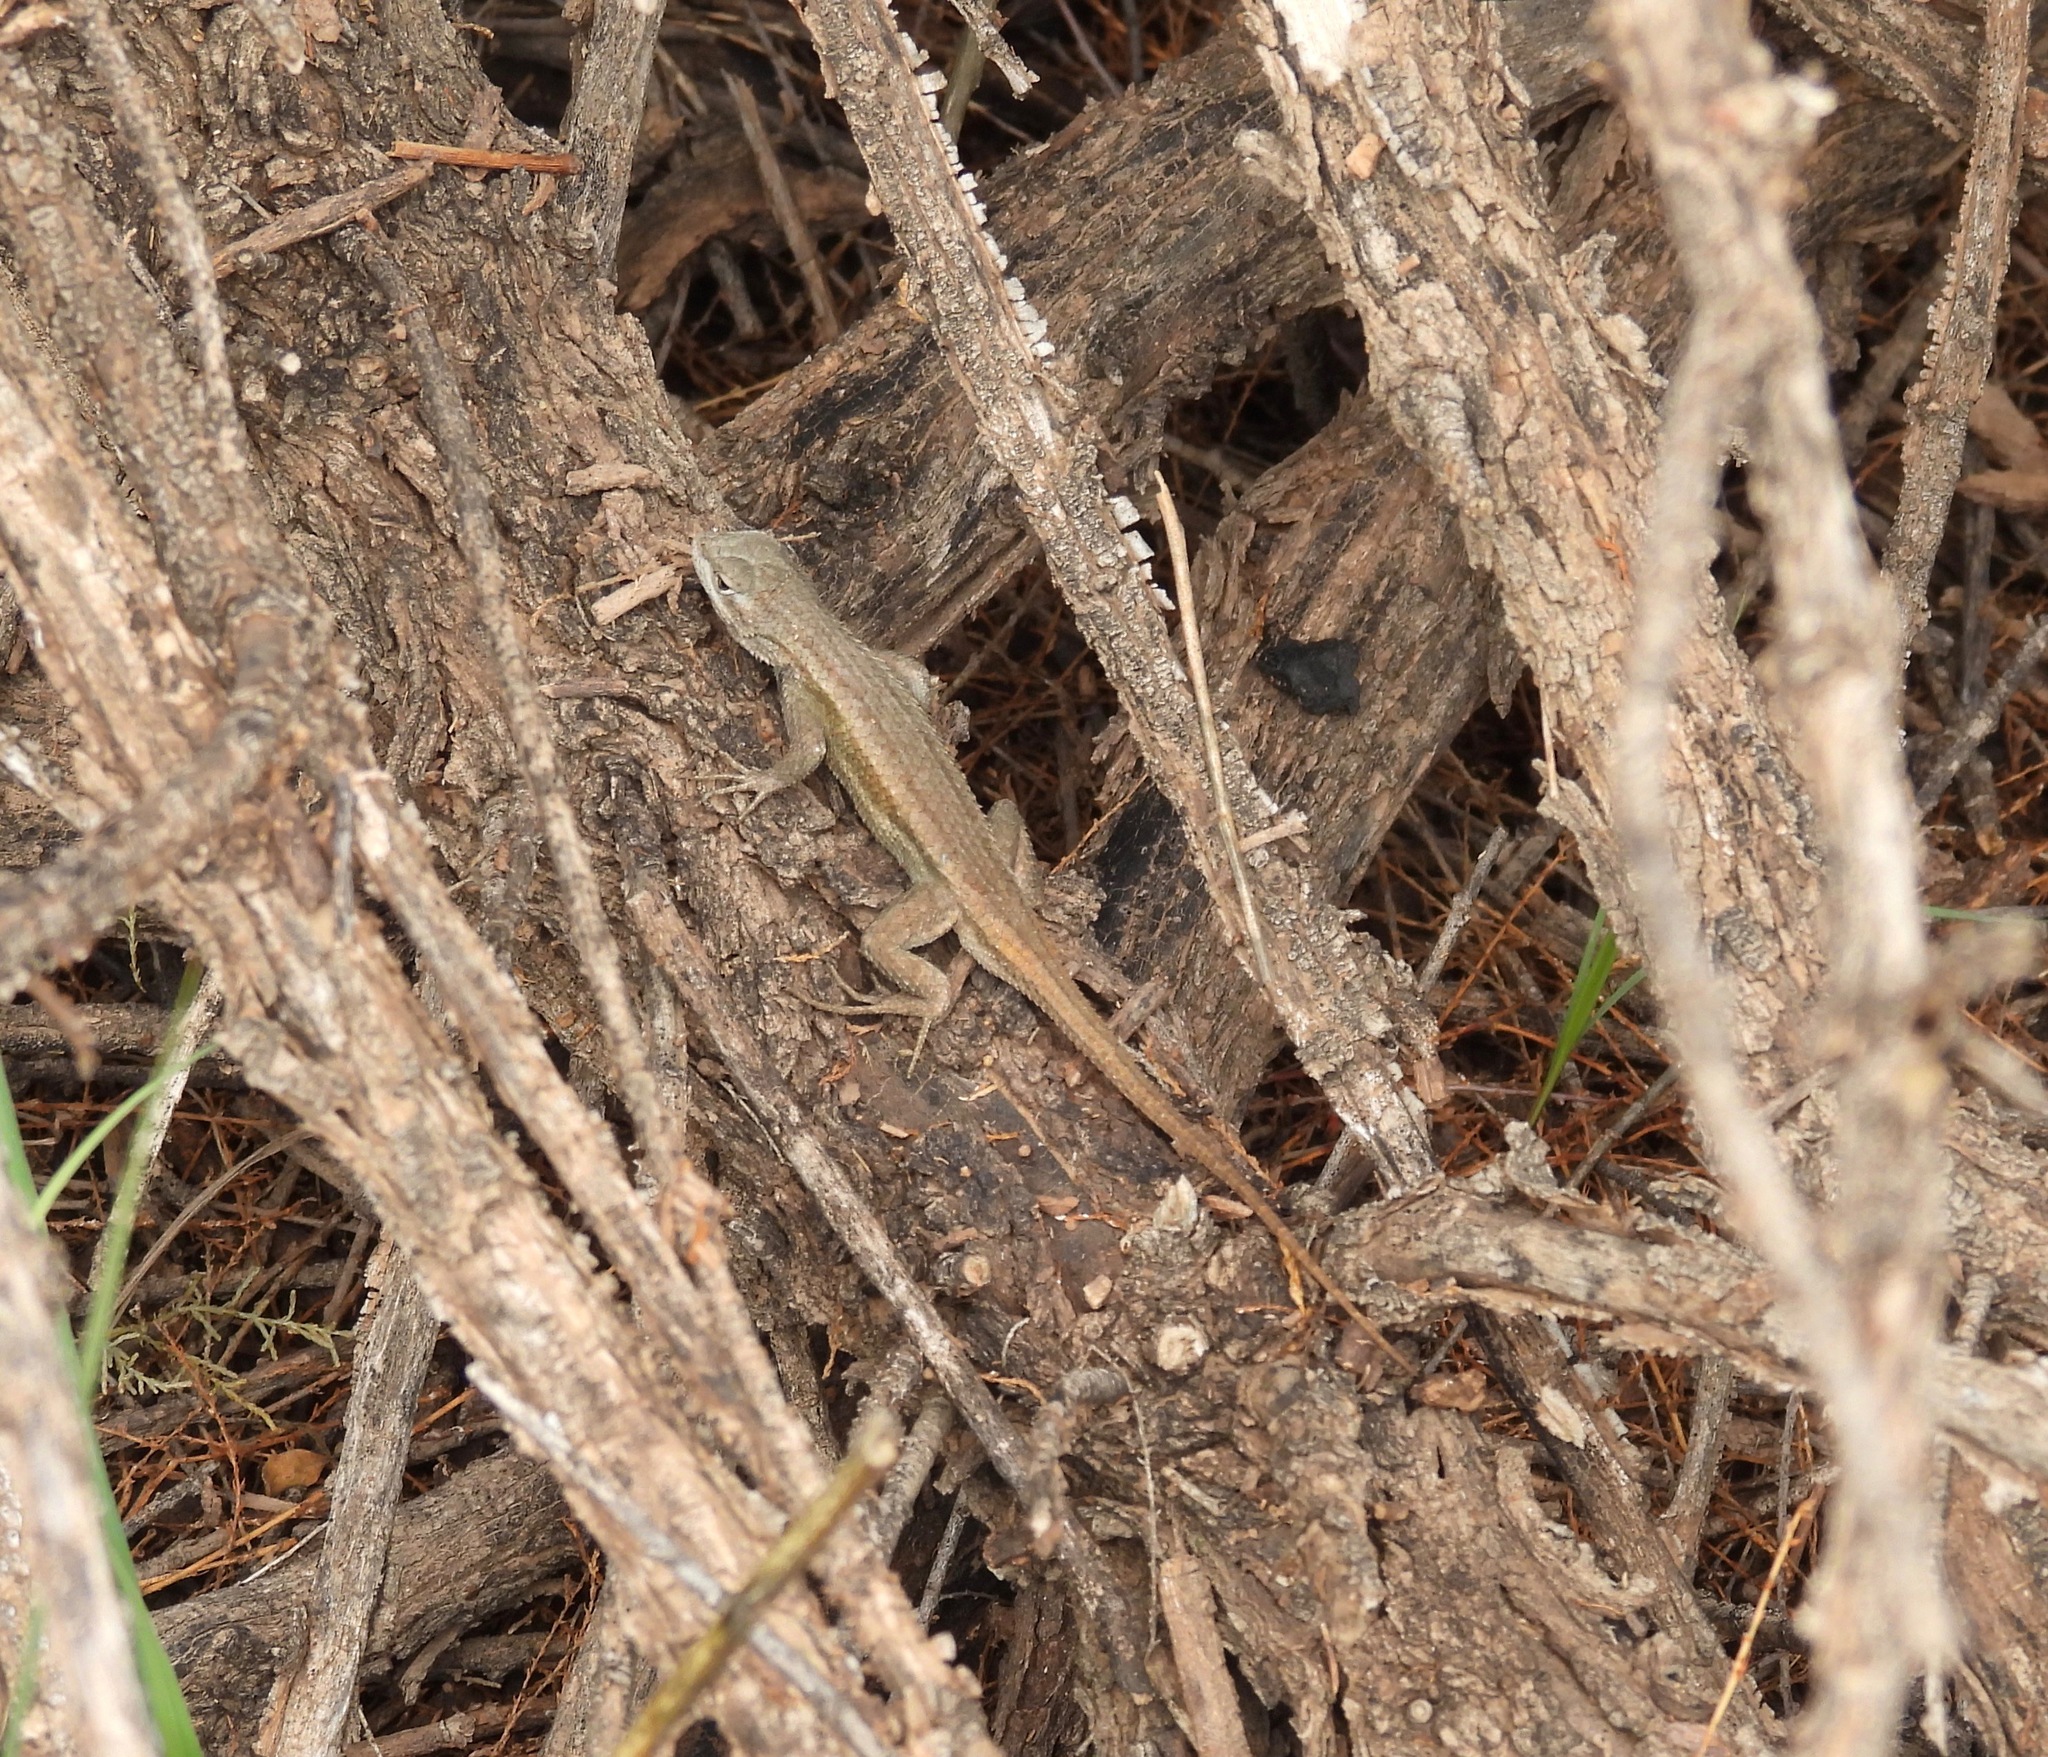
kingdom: Animalia
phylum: Chordata
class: Squamata
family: Phrynosomatidae
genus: Sceloporus
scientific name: Sceloporus cowlesi
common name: White sands prairie lizard
